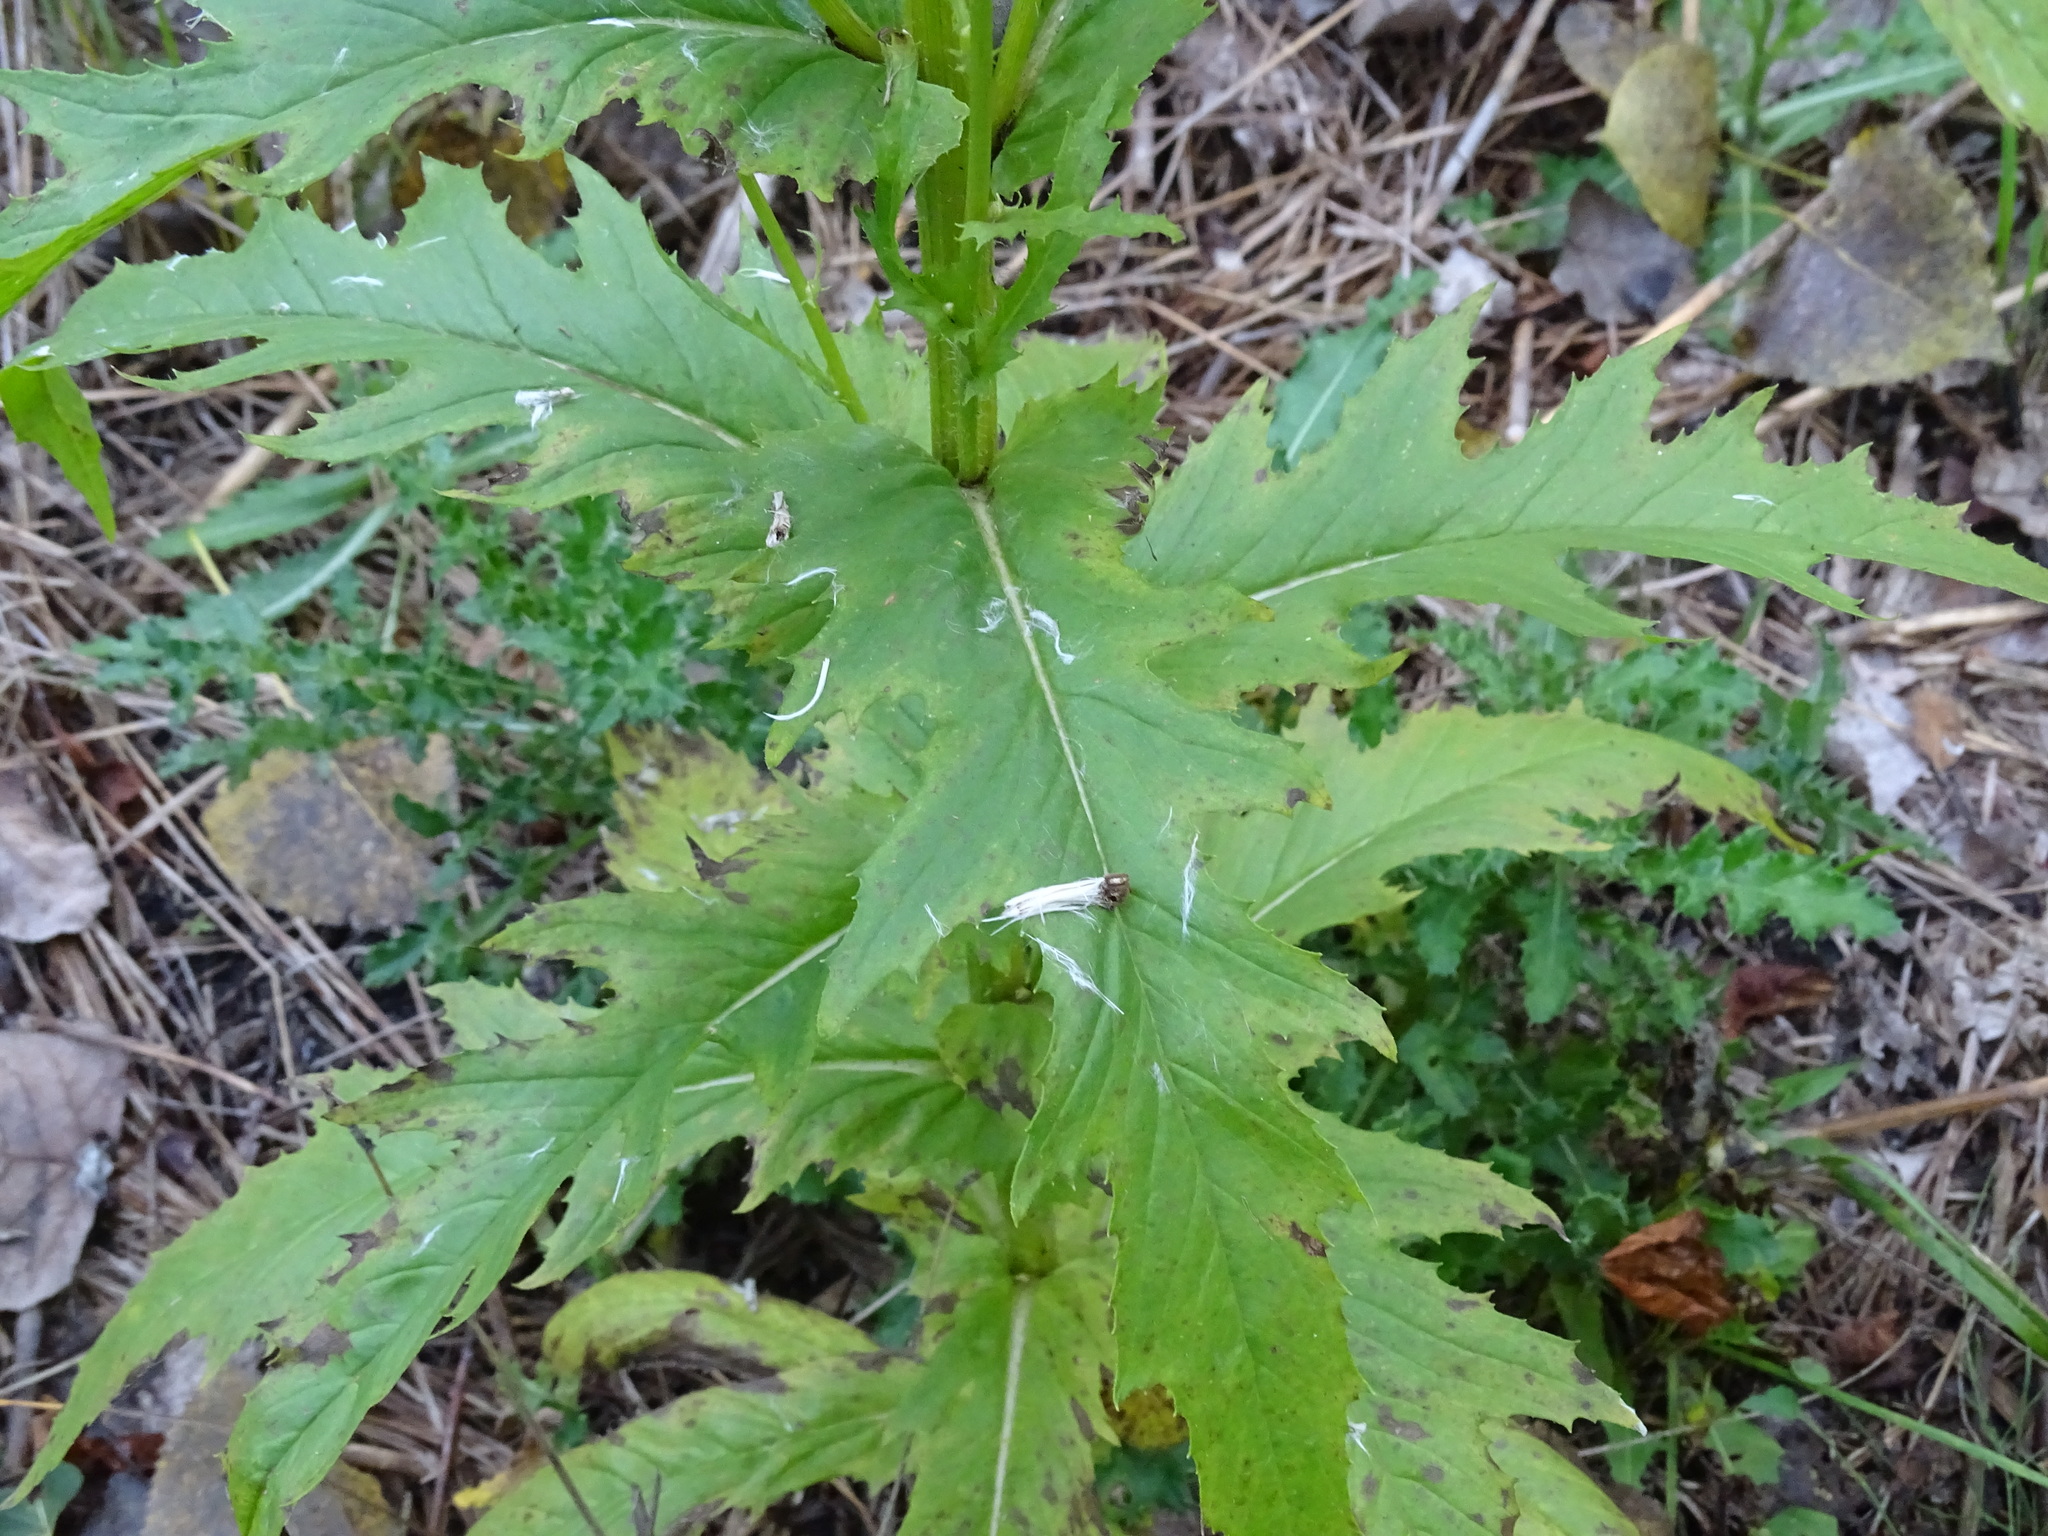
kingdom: Plantae
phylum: Tracheophyta
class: Magnoliopsida
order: Asterales
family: Asteraceae
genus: Erechtites
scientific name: Erechtites hieraciifolius
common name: American burnweed
